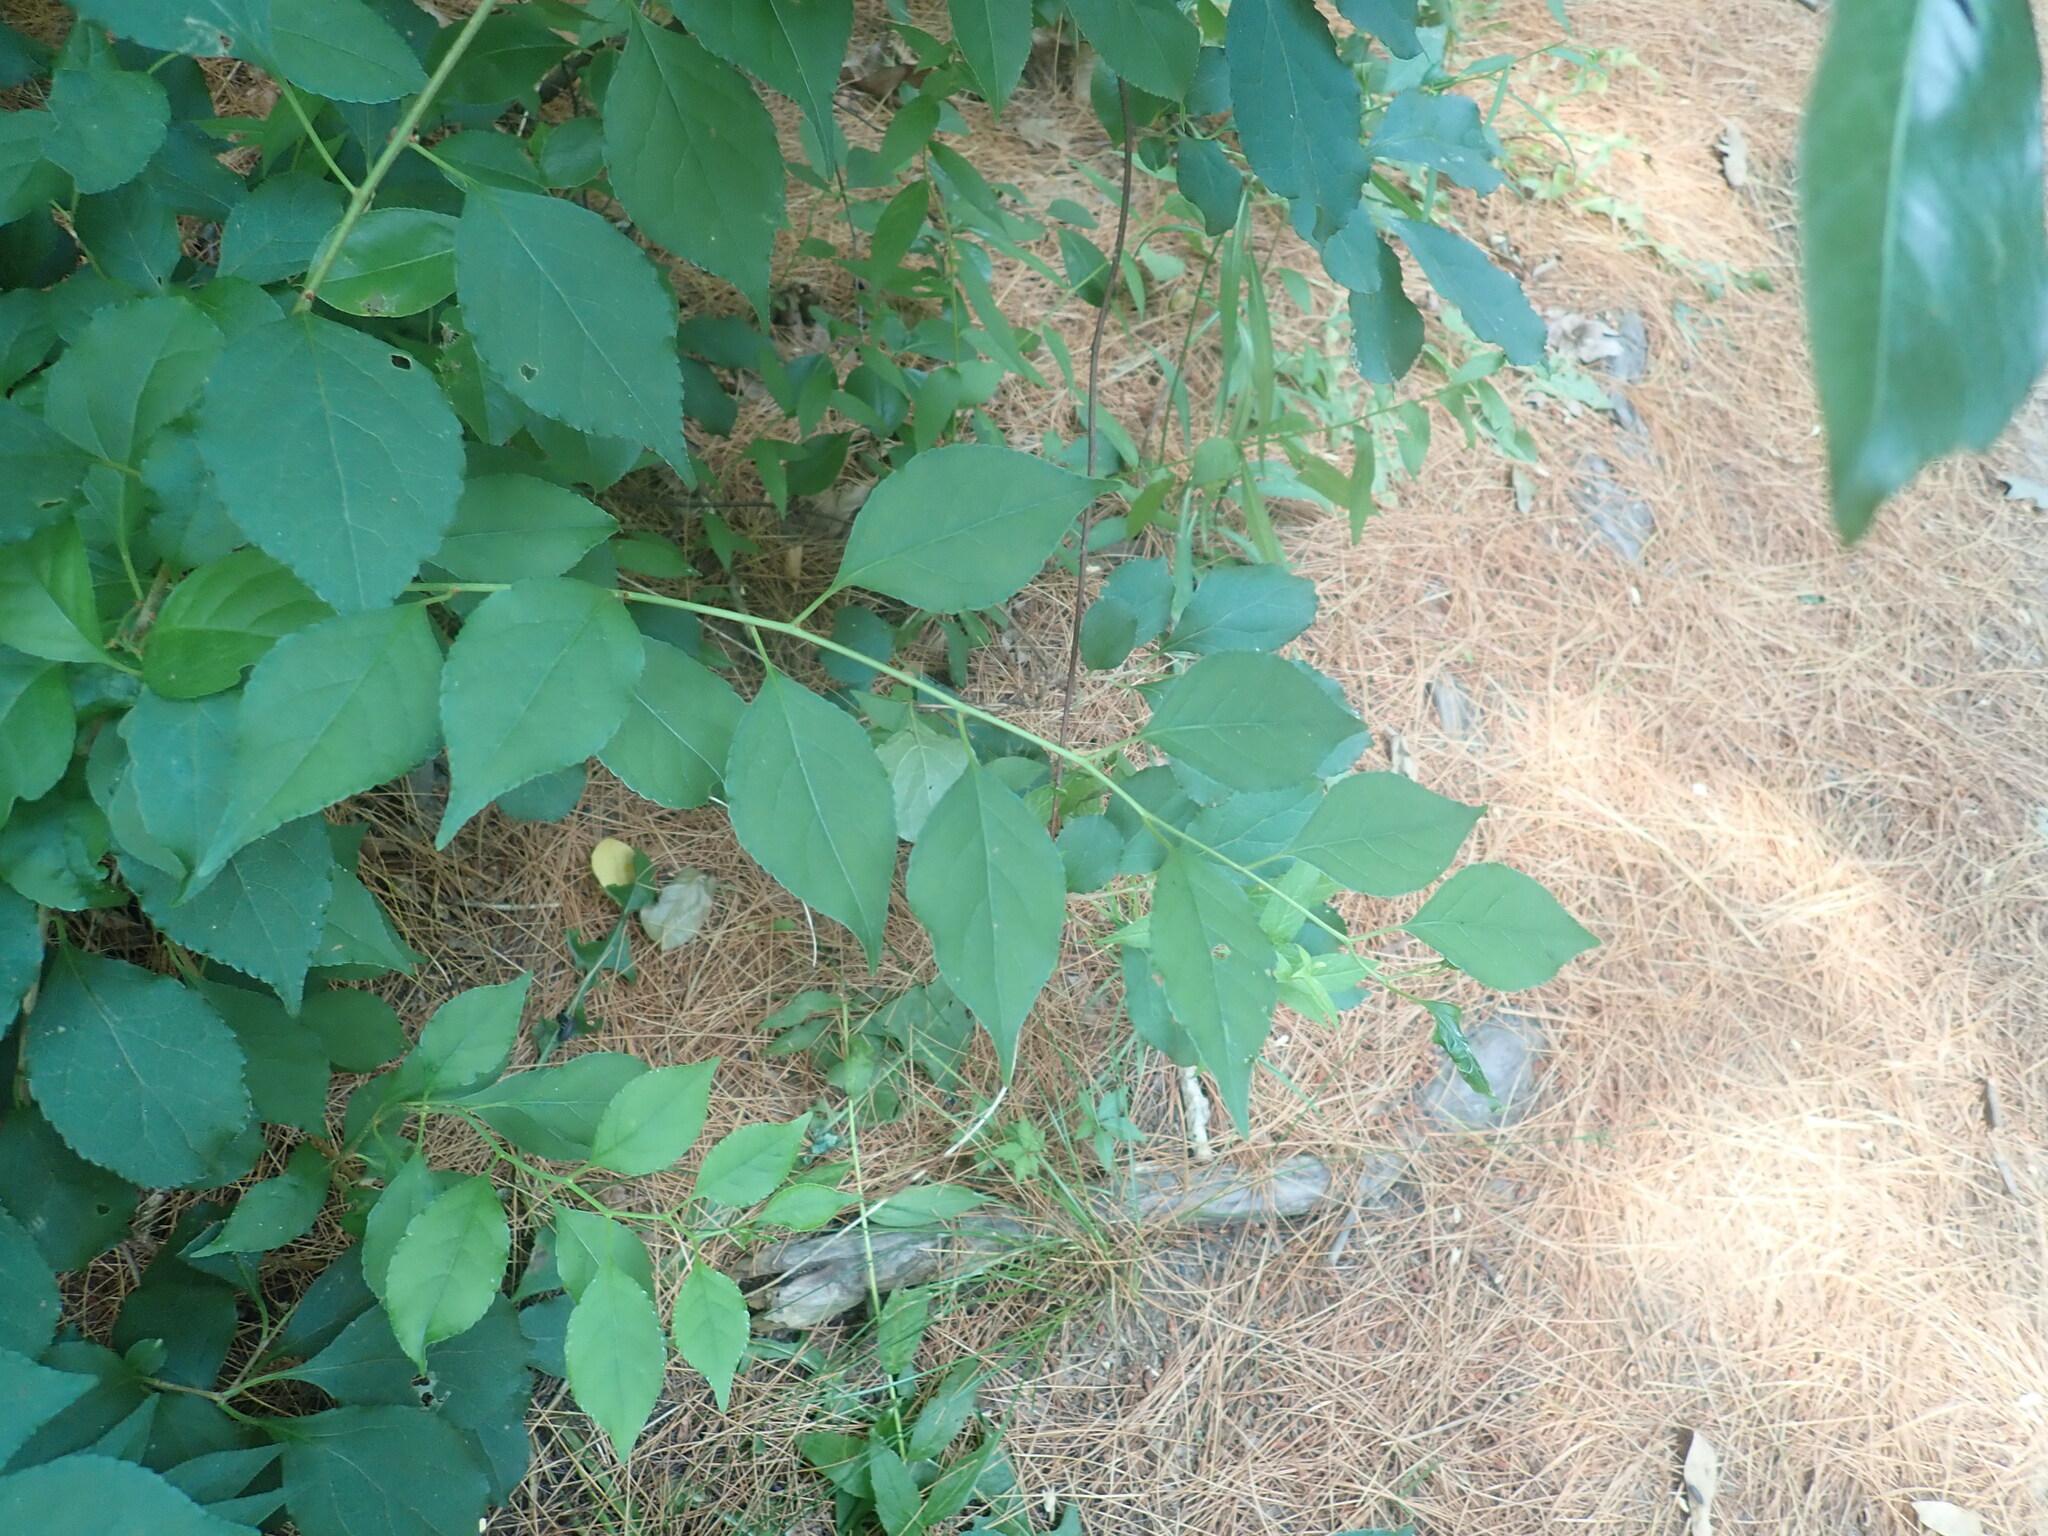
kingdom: Plantae
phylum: Tracheophyta
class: Magnoliopsida
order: Celastrales
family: Celastraceae
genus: Celastrus
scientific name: Celastrus orbiculatus
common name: Oriental bittersweet
